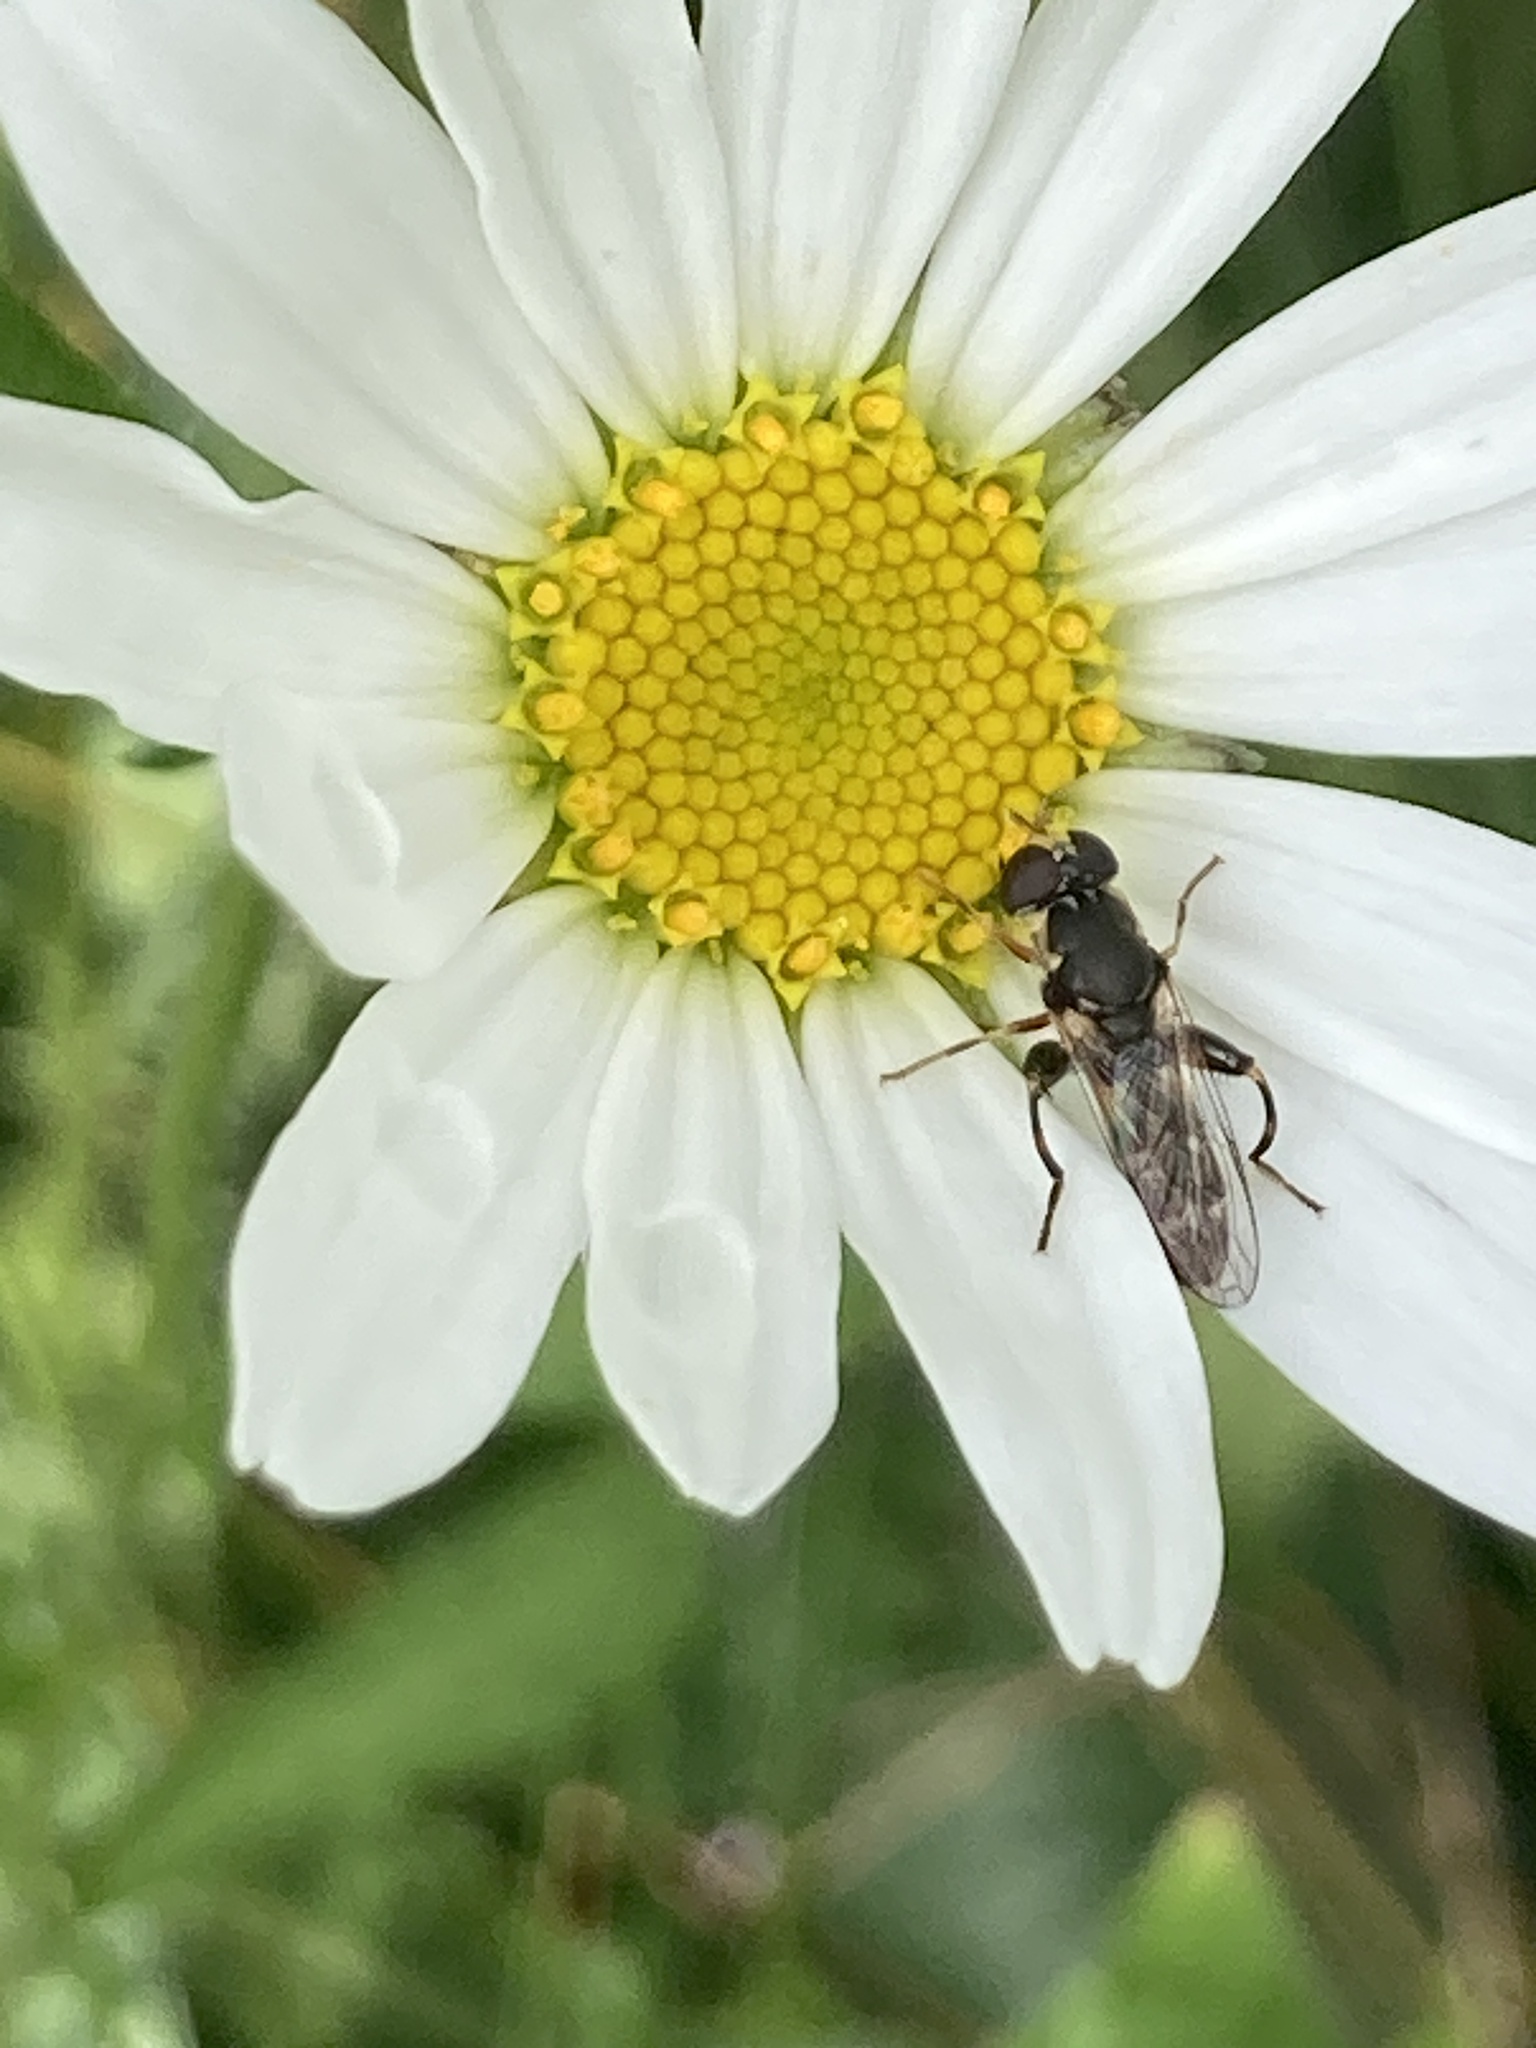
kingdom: Animalia
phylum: Arthropoda
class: Insecta
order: Diptera
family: Syrphidae
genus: Syritta
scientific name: Syritta pipiens
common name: Hover fly
